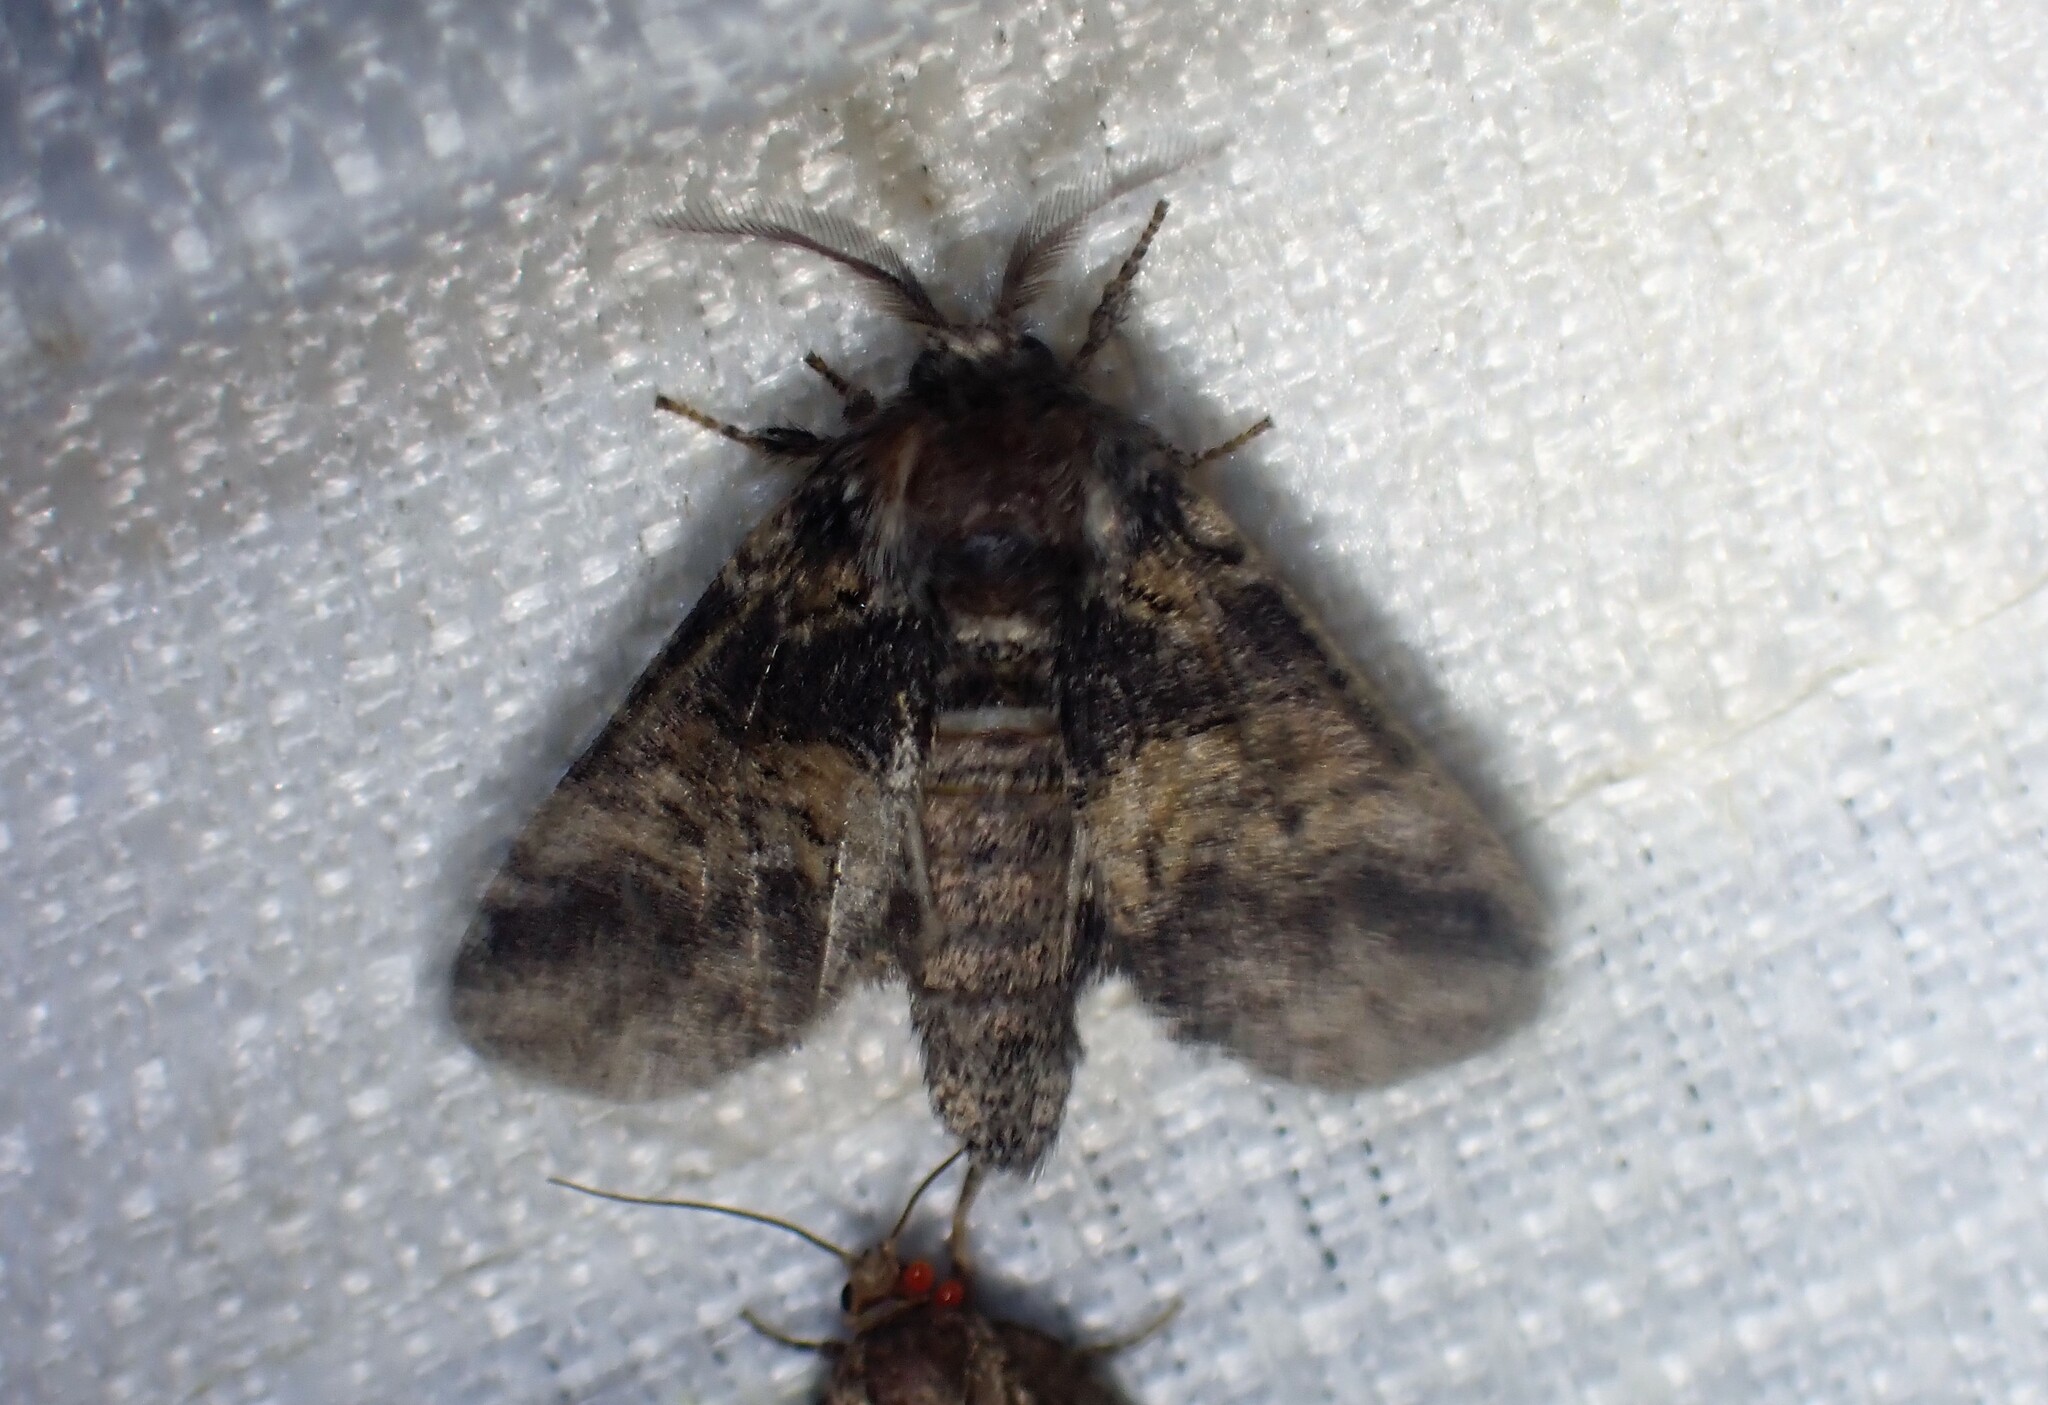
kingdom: Animalia
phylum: Arthropoda
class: Insecta
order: Lepidoptera
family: Notodontidae
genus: Gluphisia
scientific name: Gluphisia septentrionis
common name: Common gluphisia
